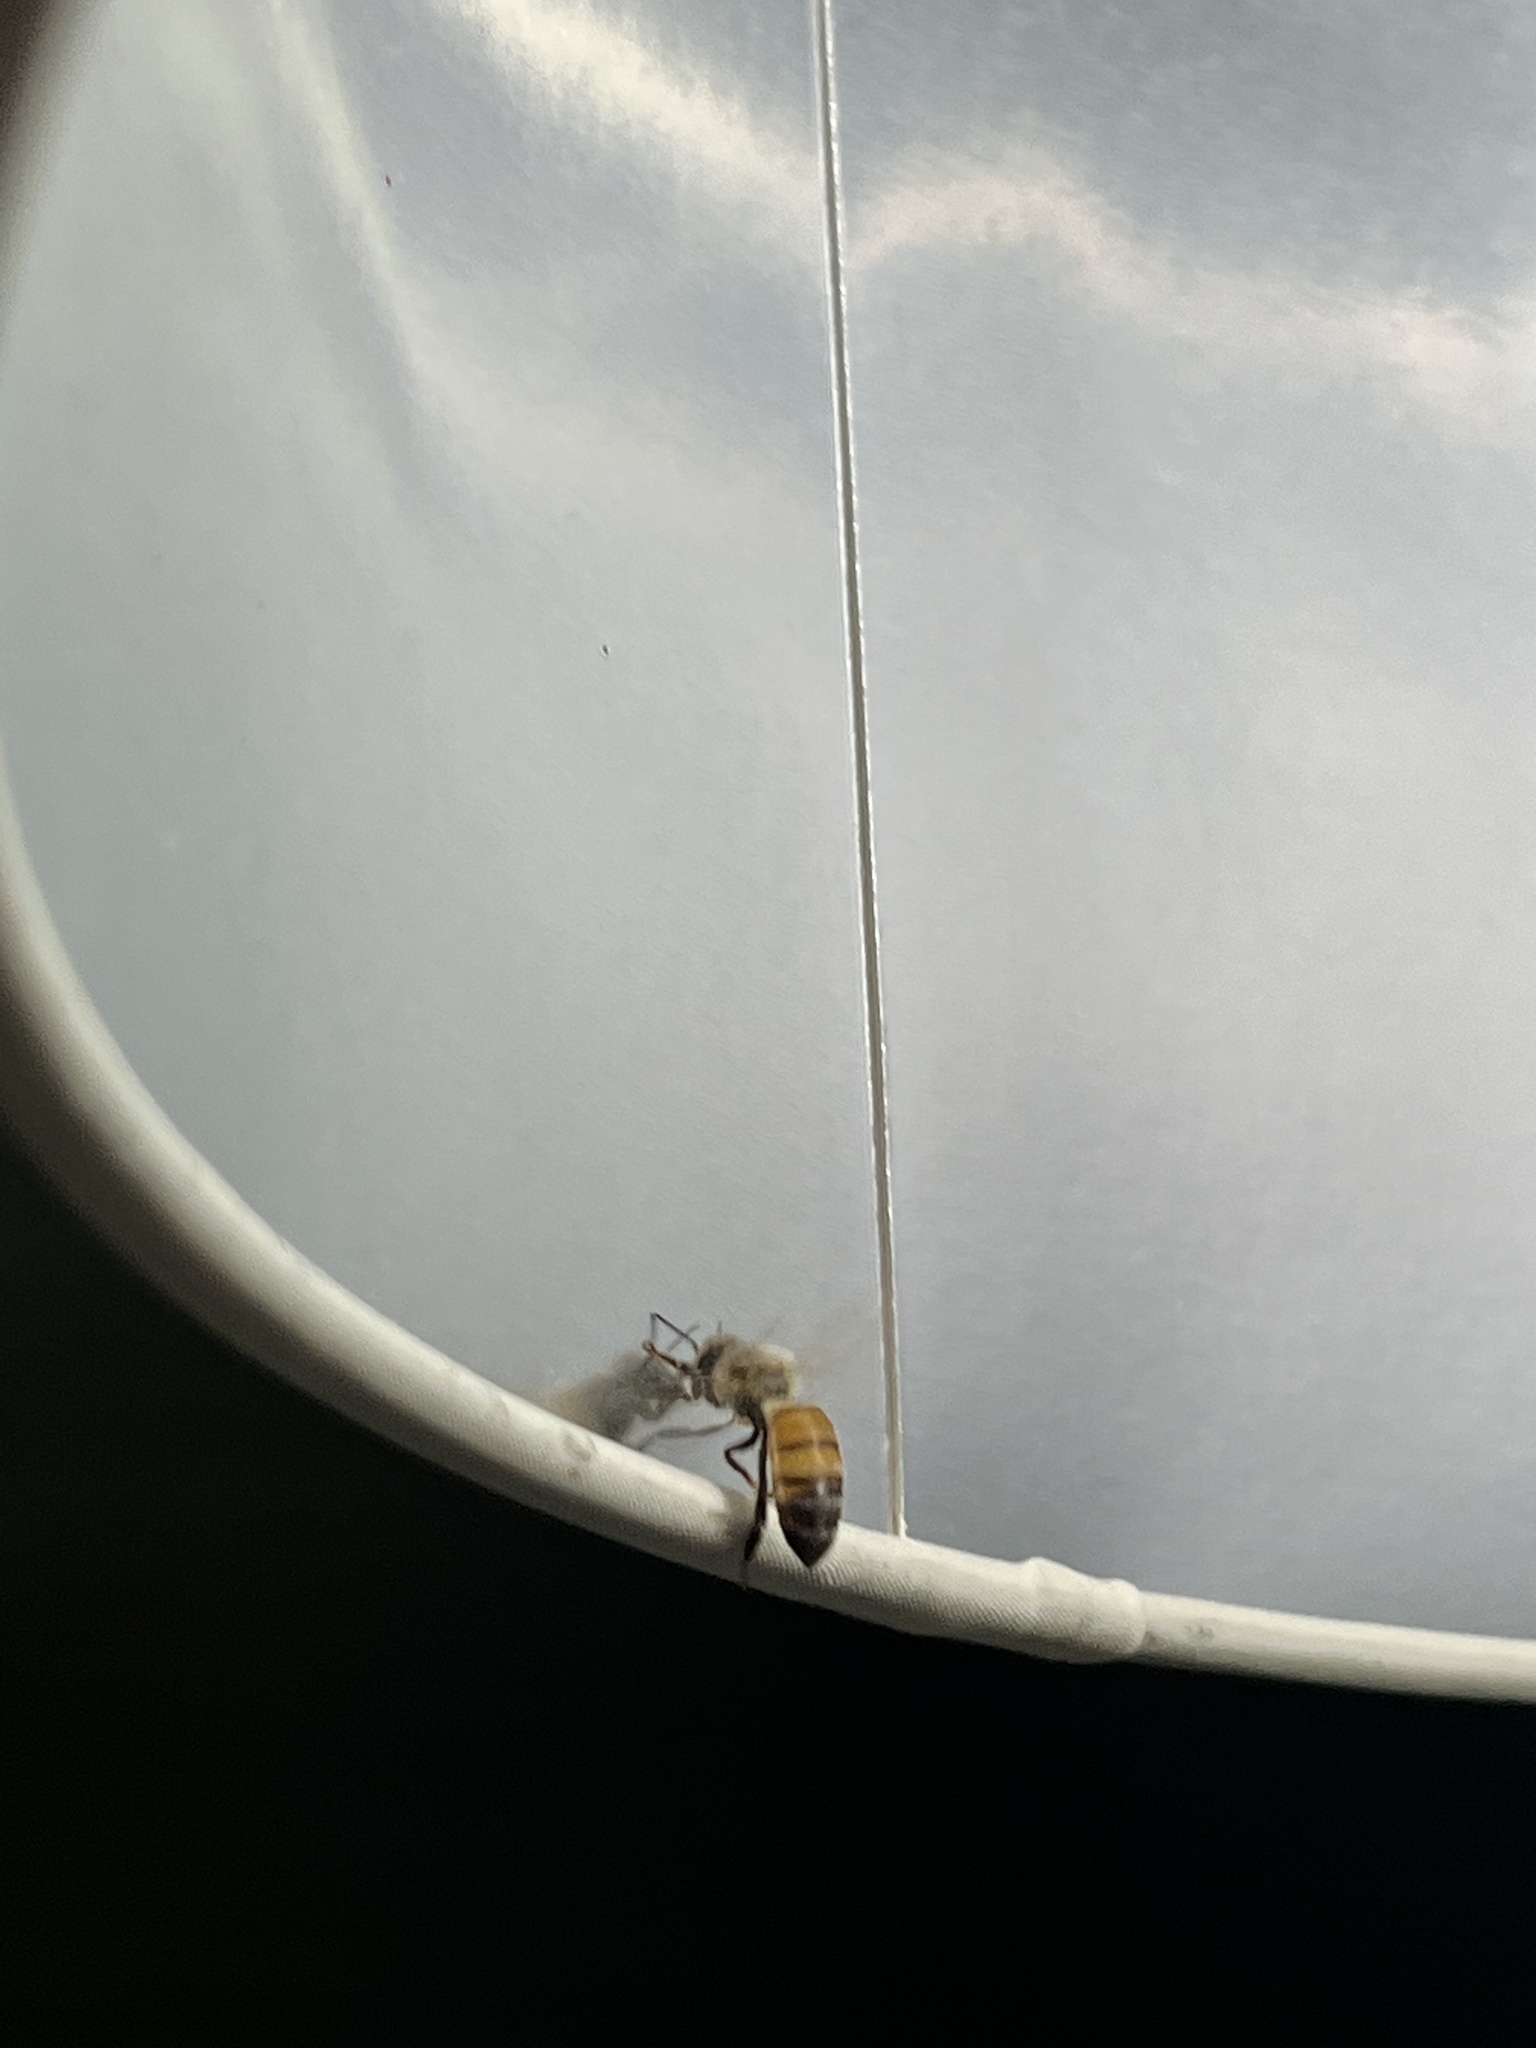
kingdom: Animalia
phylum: Arthropoda
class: Insecta
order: Hymenoptera
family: Apidae
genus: Apis
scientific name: Apis mellifera
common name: Honey bee
